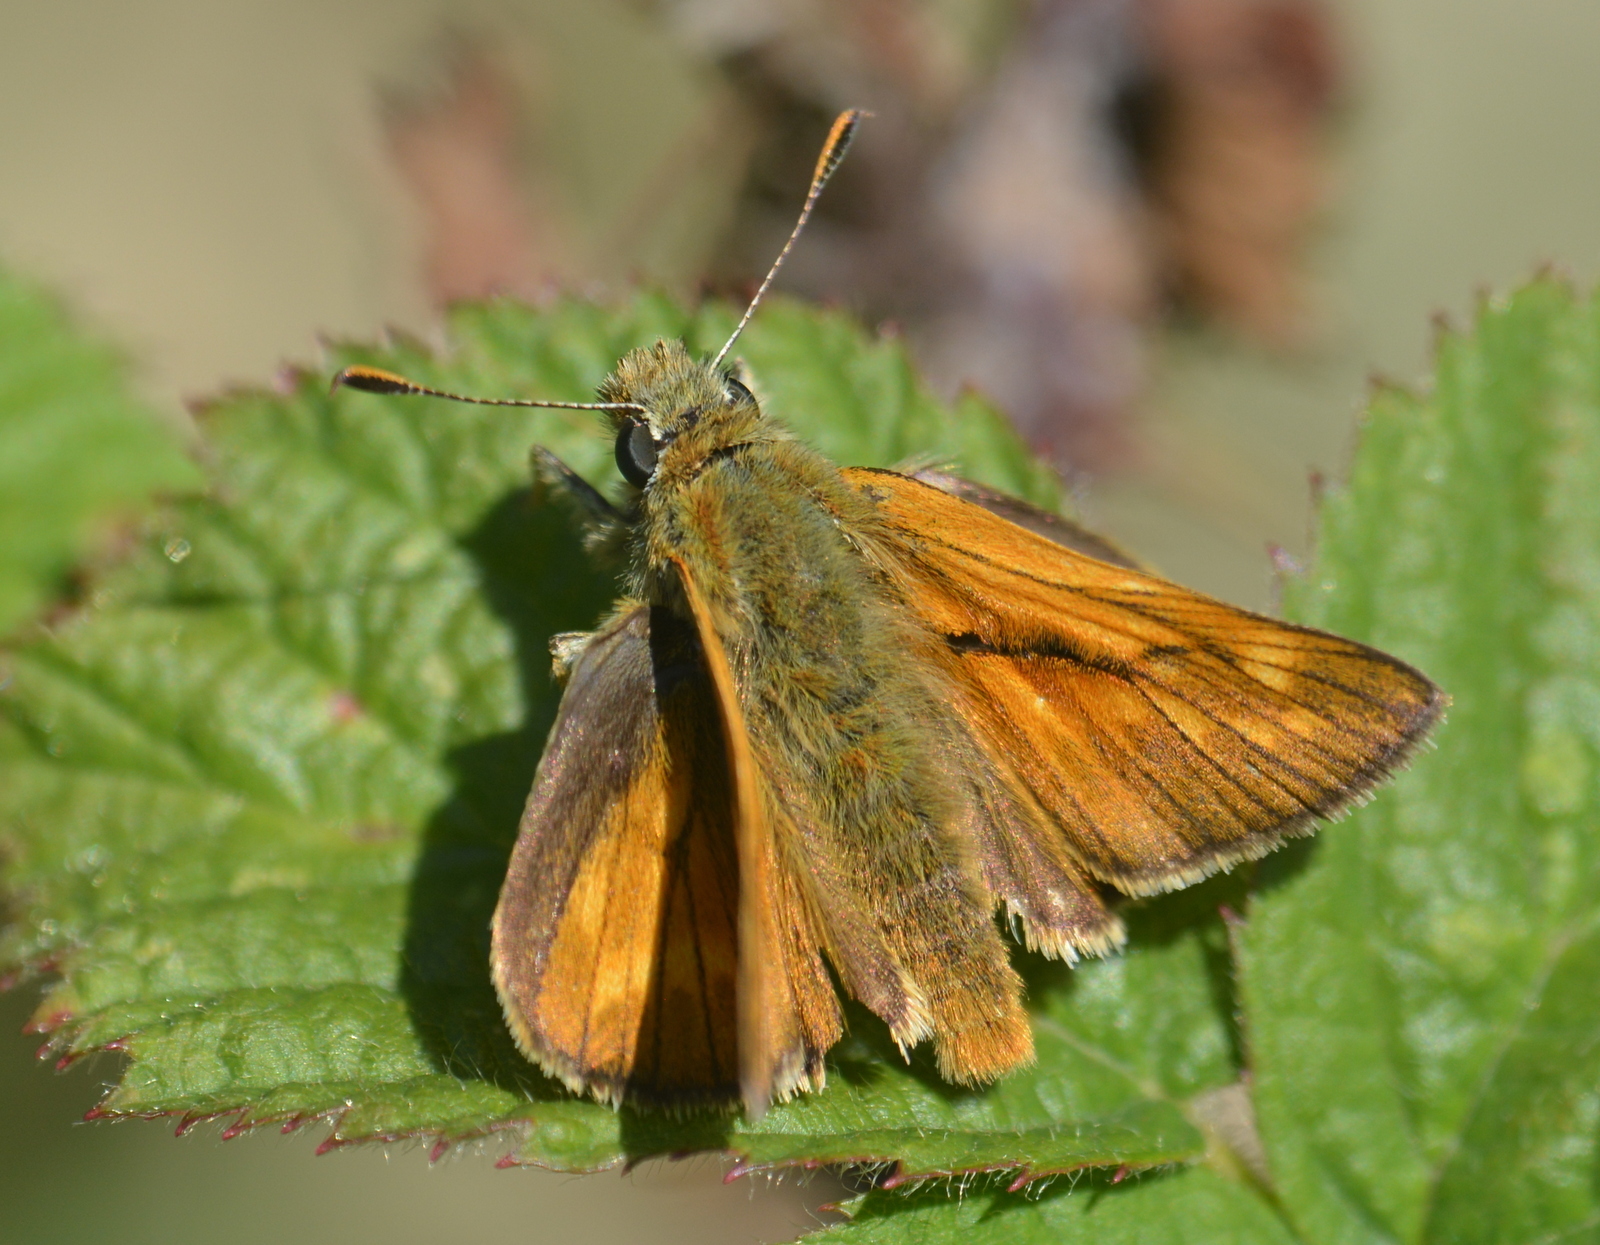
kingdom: Animalia
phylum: Arthropoda
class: Insecta
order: Lepidoptera
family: Hesperiidae
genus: Ochlodes
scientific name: Ochlodes venata
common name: Large skipper
